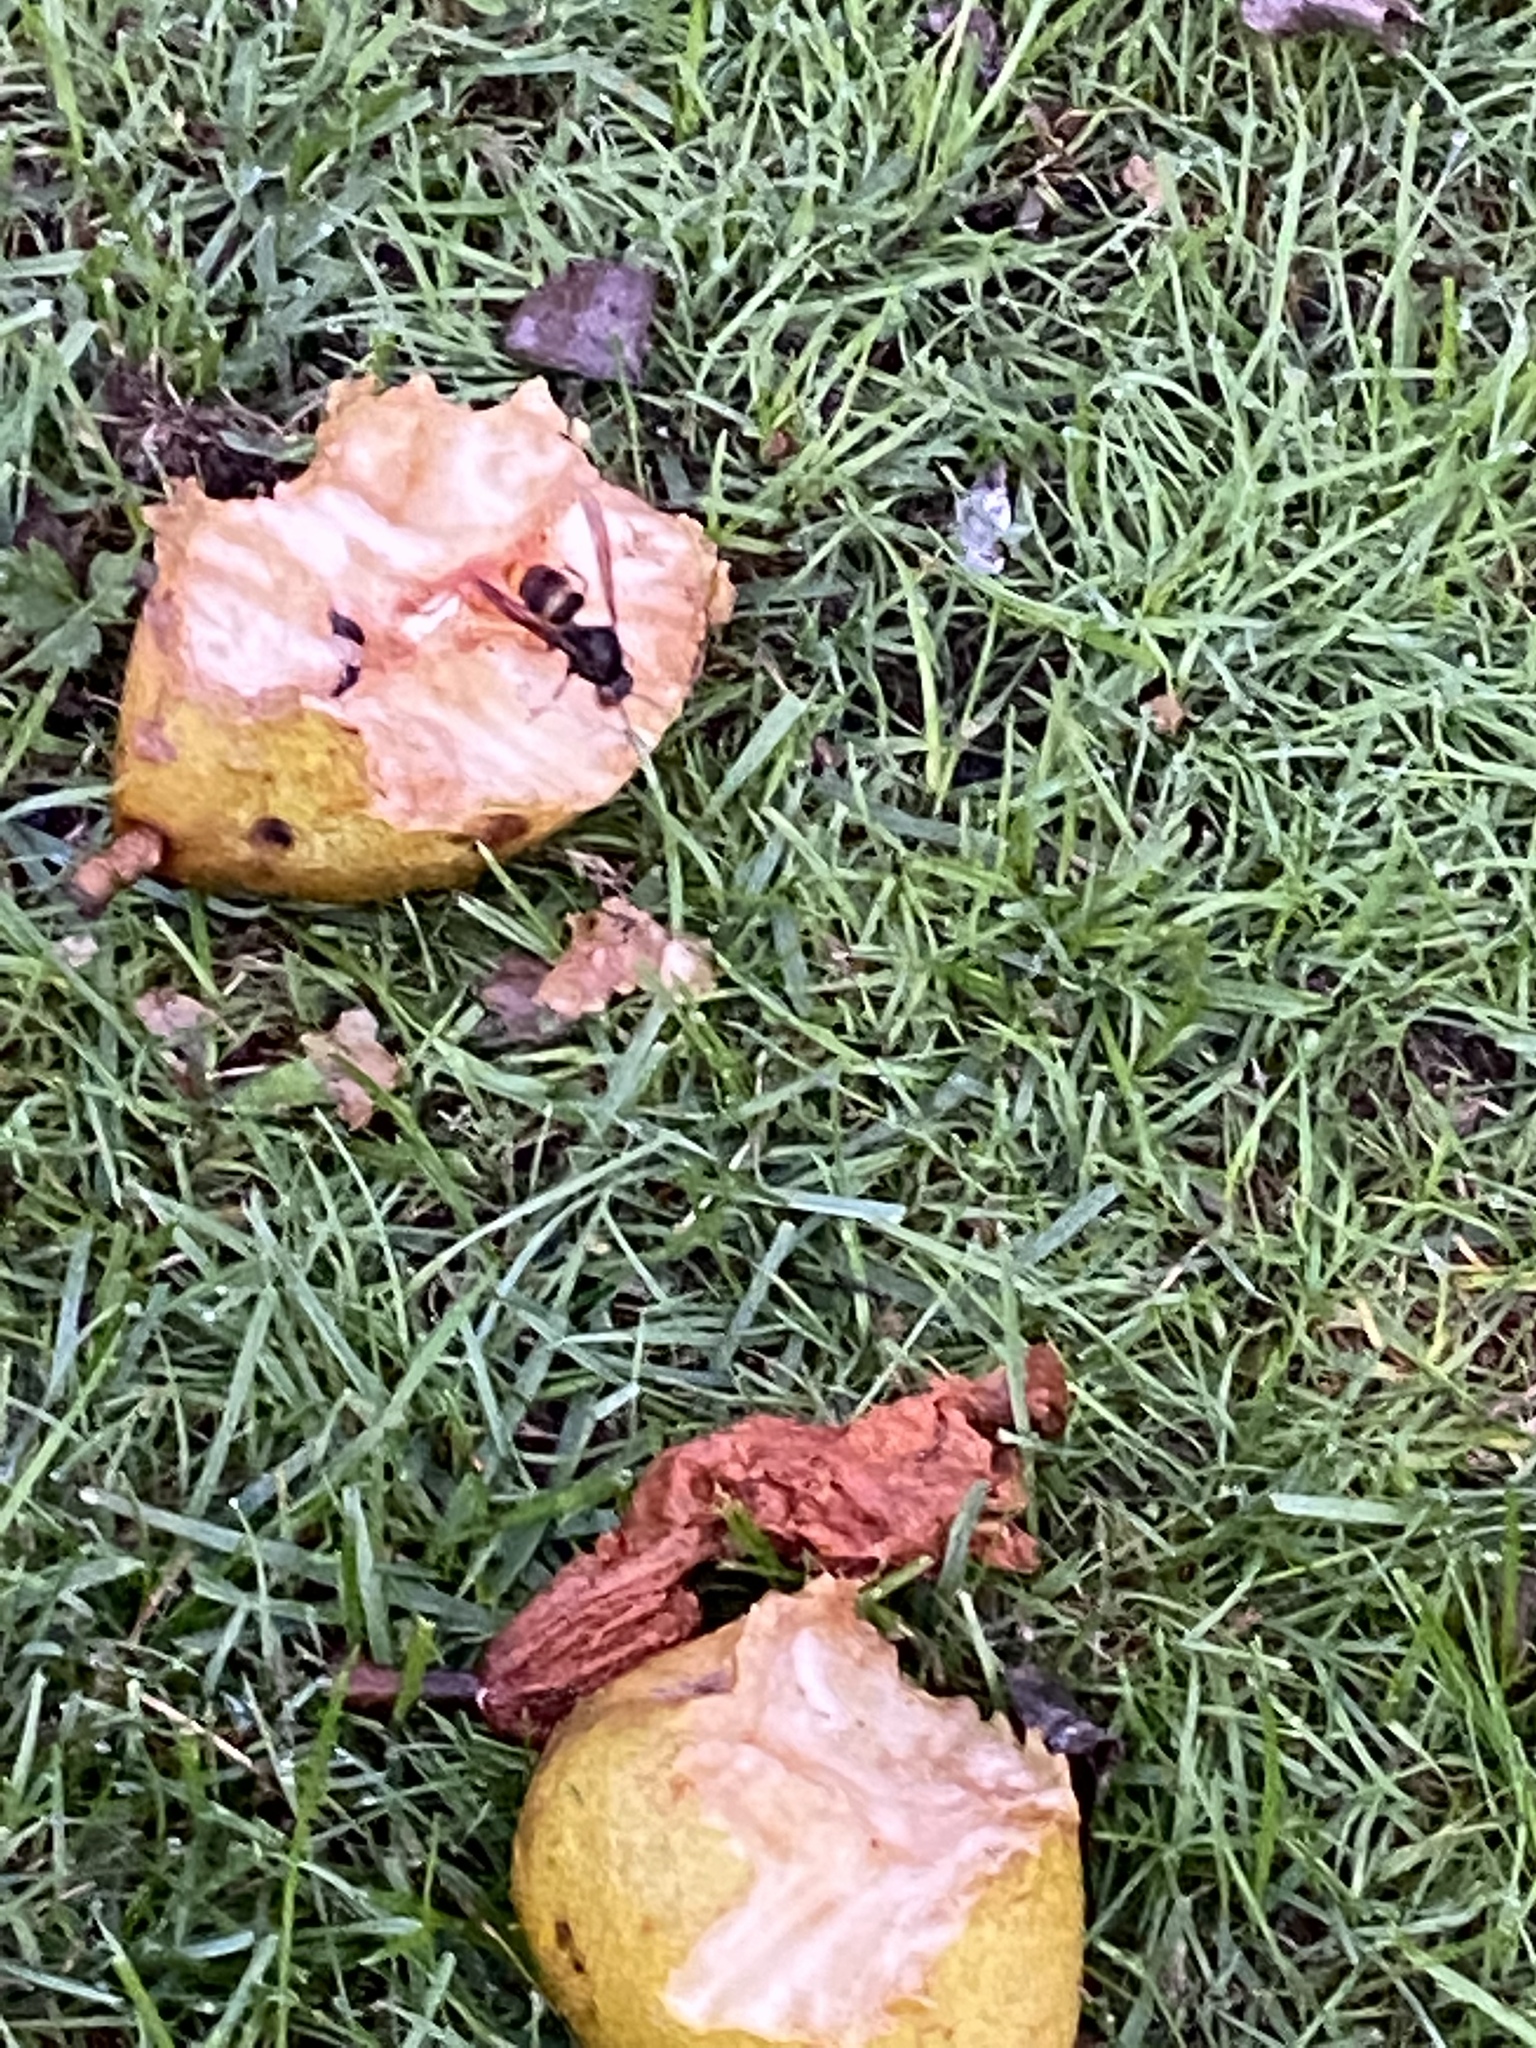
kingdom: Animalia
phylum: Arthropoda
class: Insecta
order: Hymenoptera
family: Vespidae
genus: Vespa
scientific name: Vespa velutina
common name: Asian hornet
